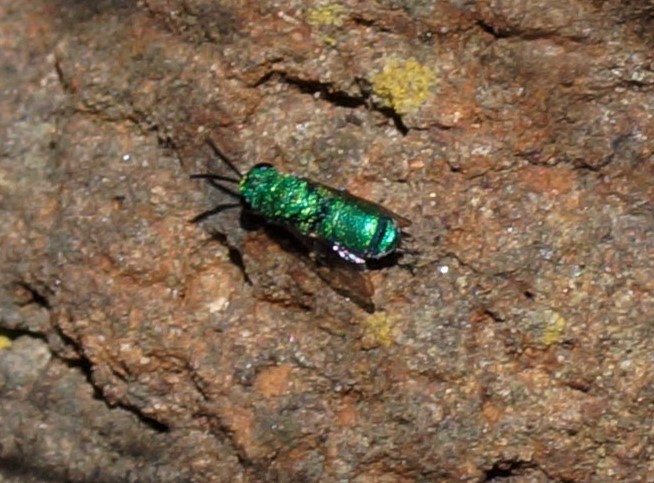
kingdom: Animalia
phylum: Arthropoda
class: Insecta
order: Hymenoptera
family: Chrysididae
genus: Primeuchroeus
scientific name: Primeuchroeus
